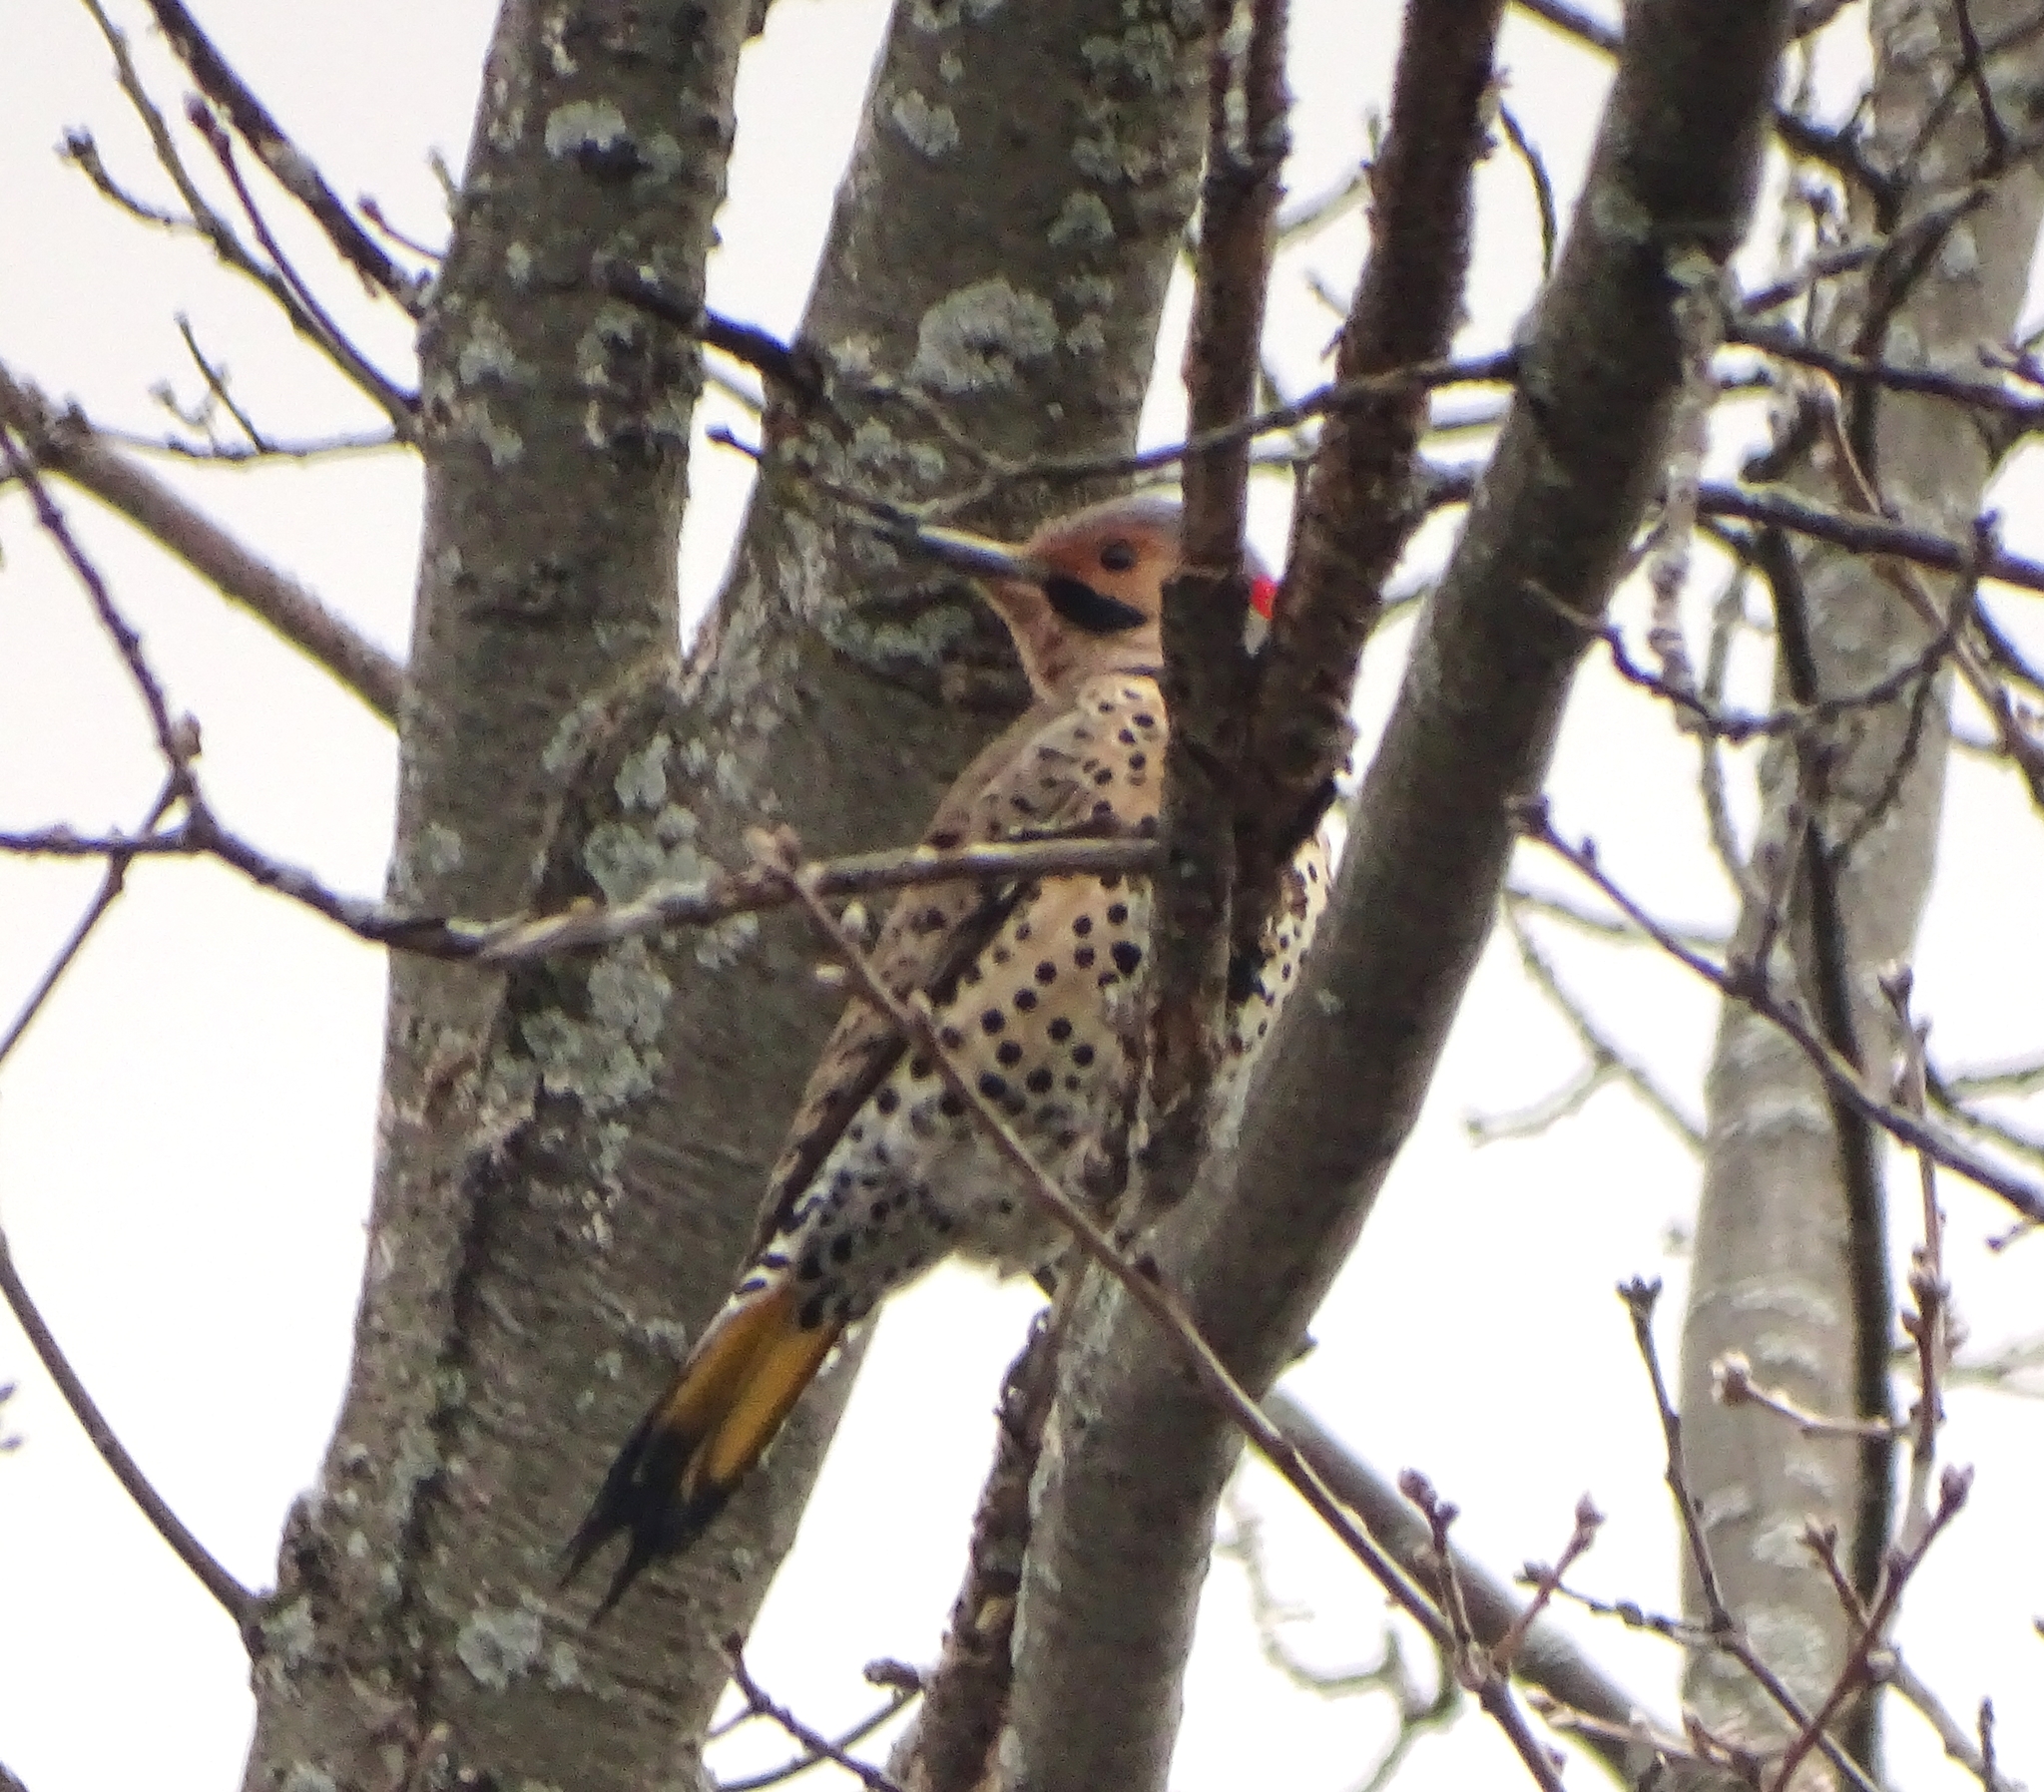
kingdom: Animalia
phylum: Chordata
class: Aves
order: Piciformes
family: Picidae
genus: Colaptes
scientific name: Colaptes auratus
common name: Northern flicker
